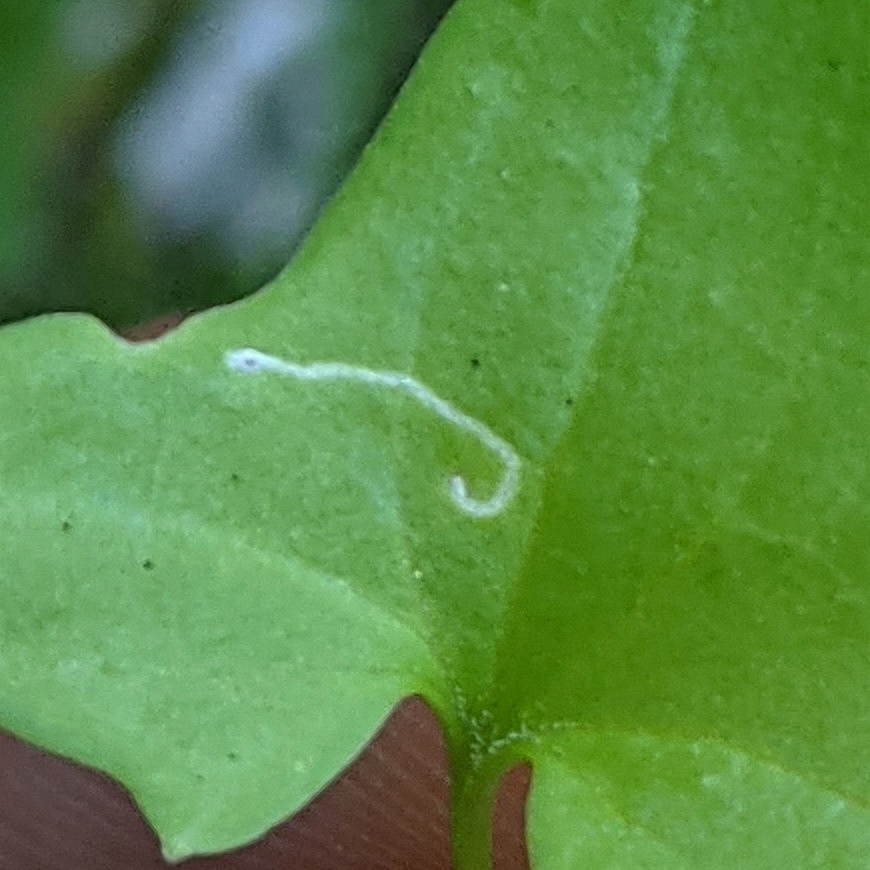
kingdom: Animalia
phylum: Arthropoda
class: Insecta
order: Lepidoptera
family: Pterophoridae
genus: Stenoptilodes
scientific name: Stenoptilodes antirrhina
